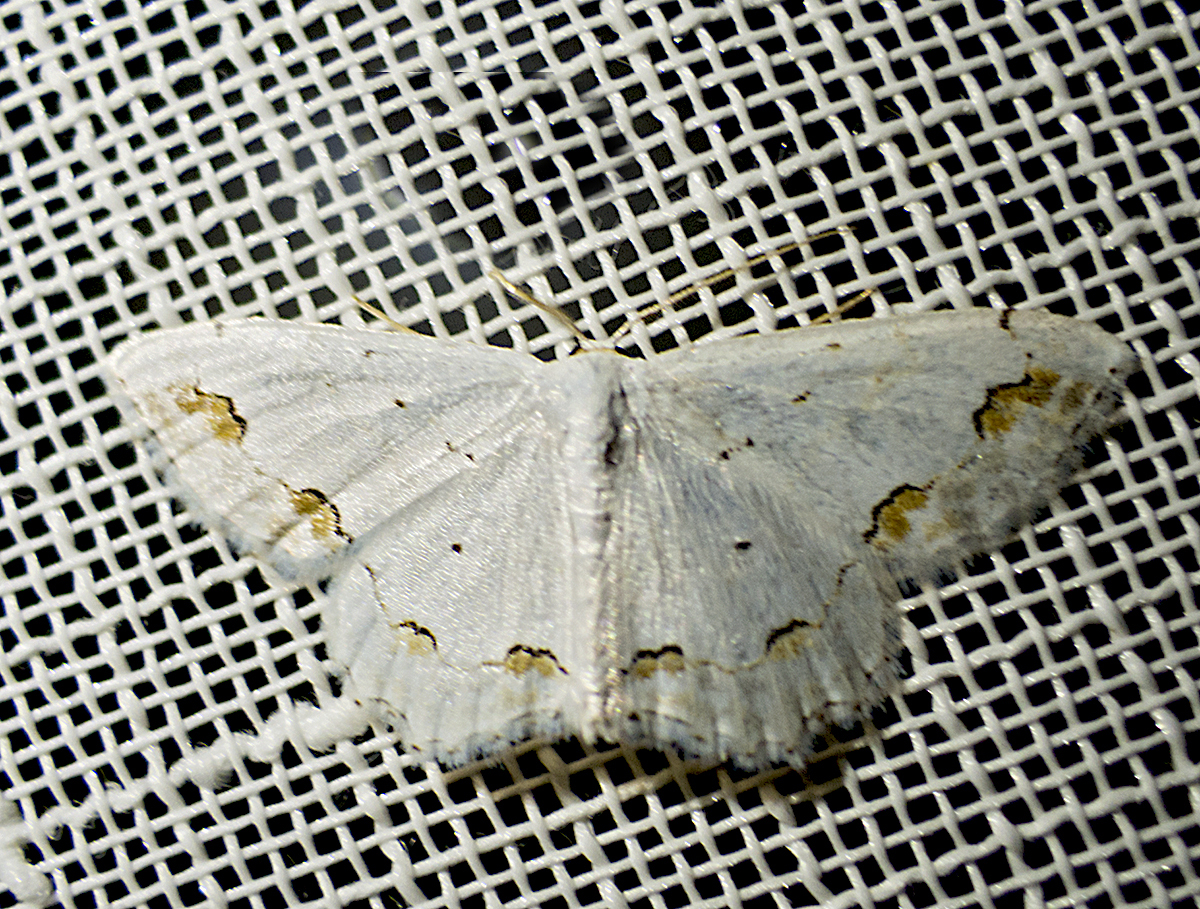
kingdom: Animalia
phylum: Arthropoda
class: Insecta
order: Lepidoptera
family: Geometridae
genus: Scopula
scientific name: Scopula ornata
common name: Lace border
